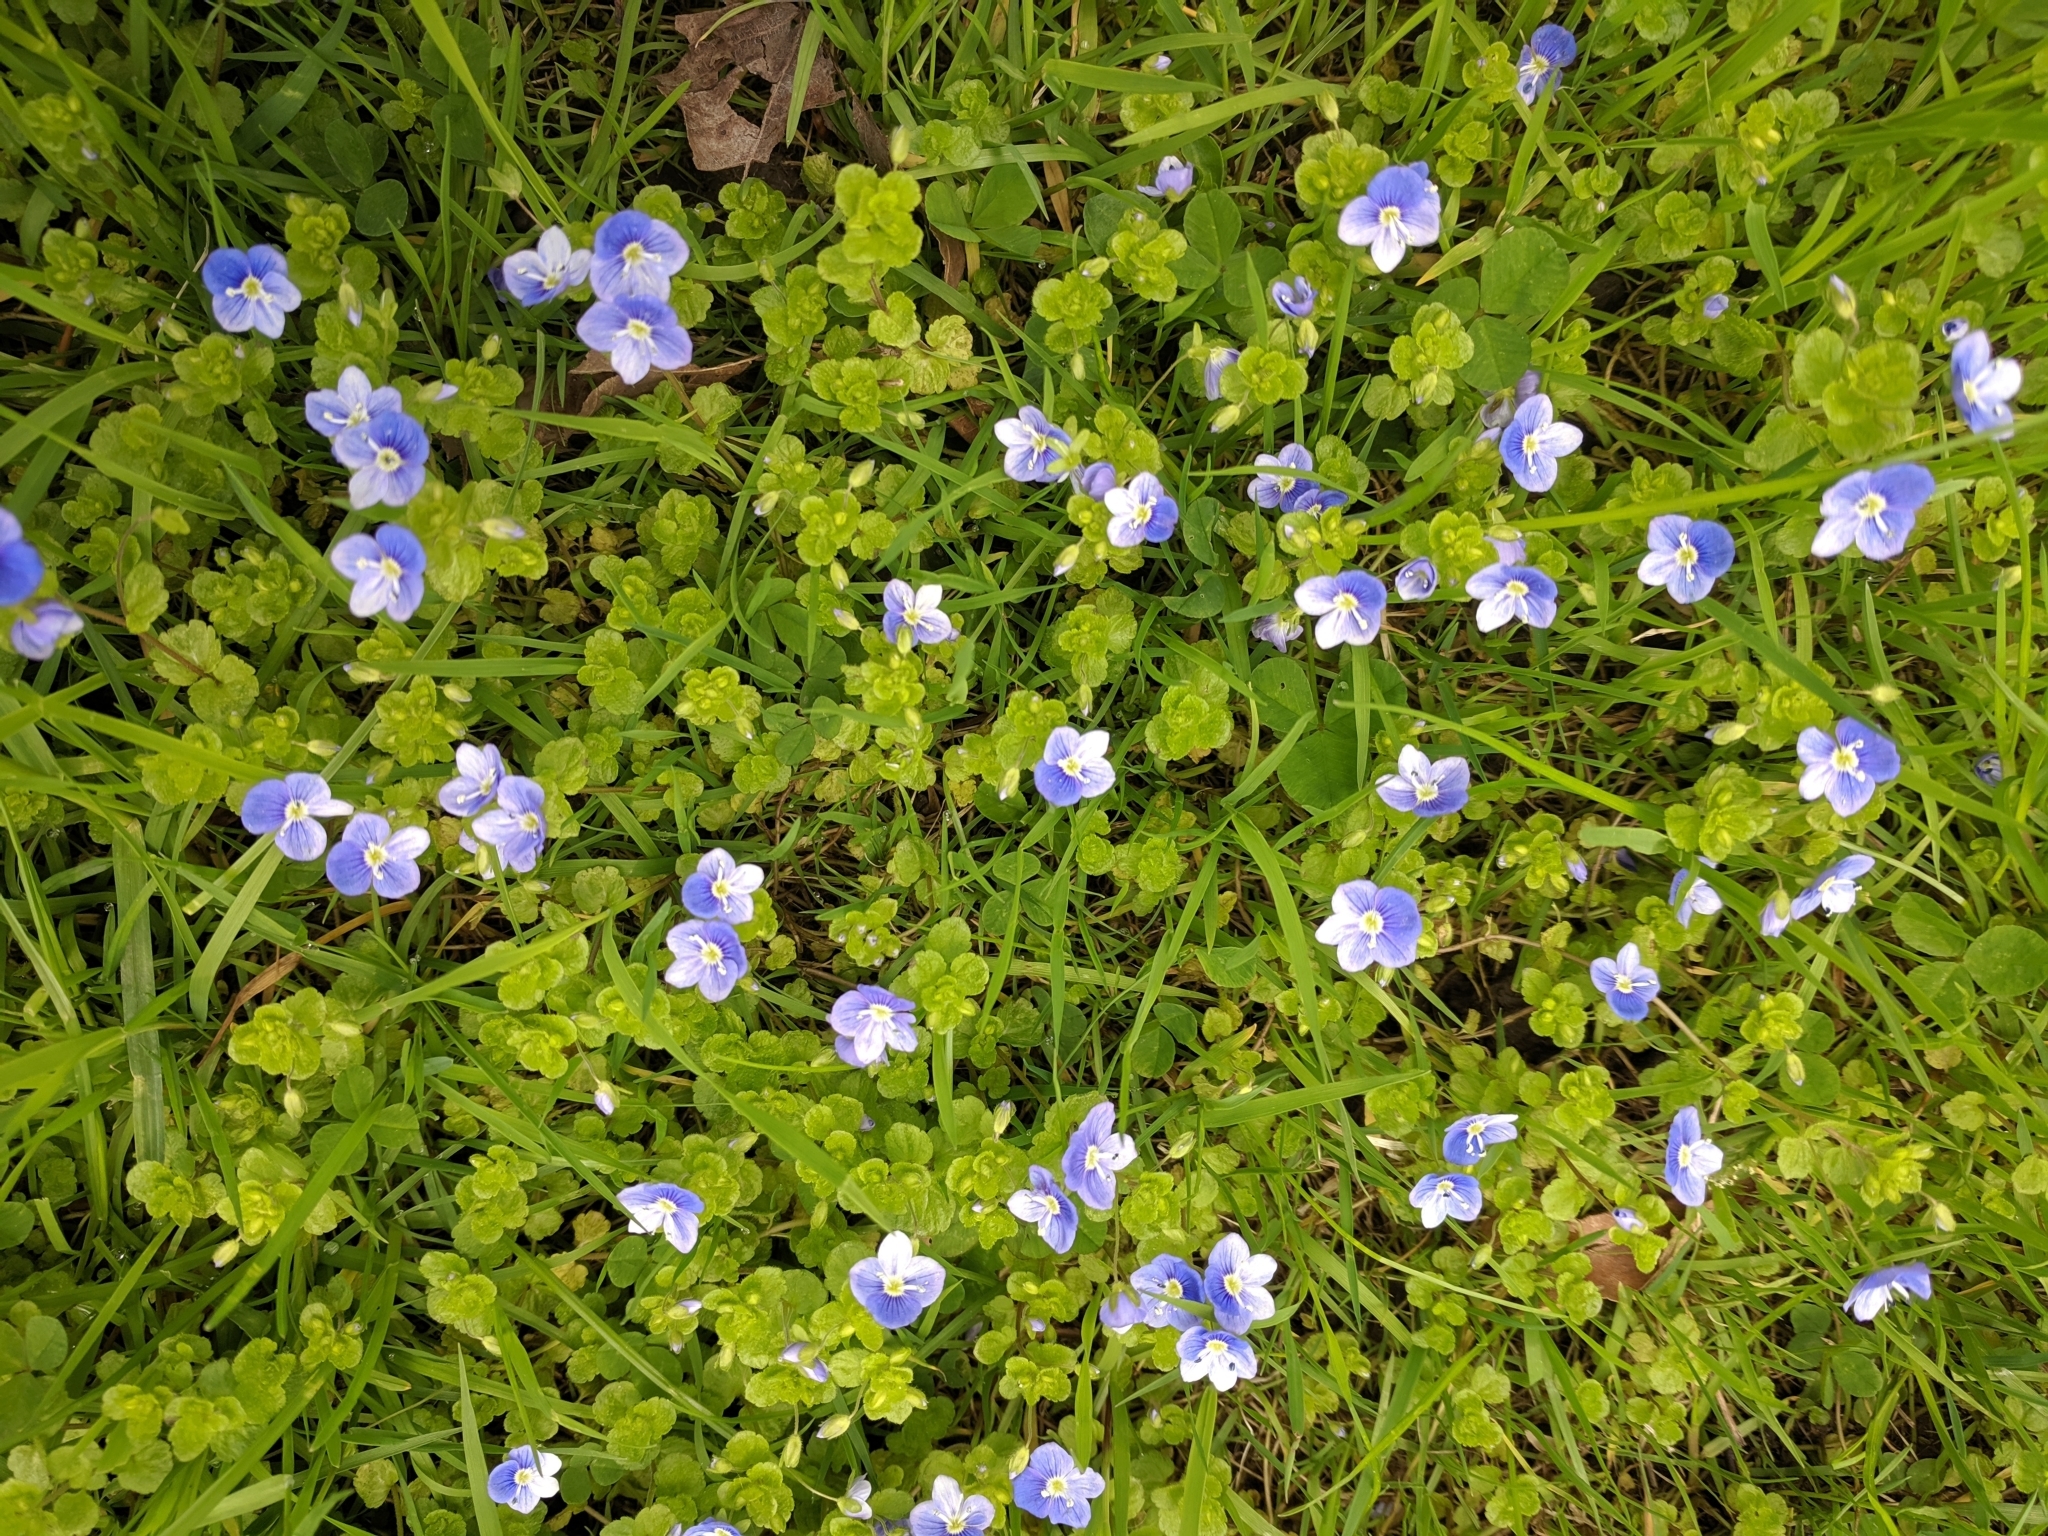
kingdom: Plantae
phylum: Tracheophyta
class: Magnoliopsida
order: Lamiales
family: Plantaginaceae
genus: Veronica
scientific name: Veronica filiformis
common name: Slender speedwell
